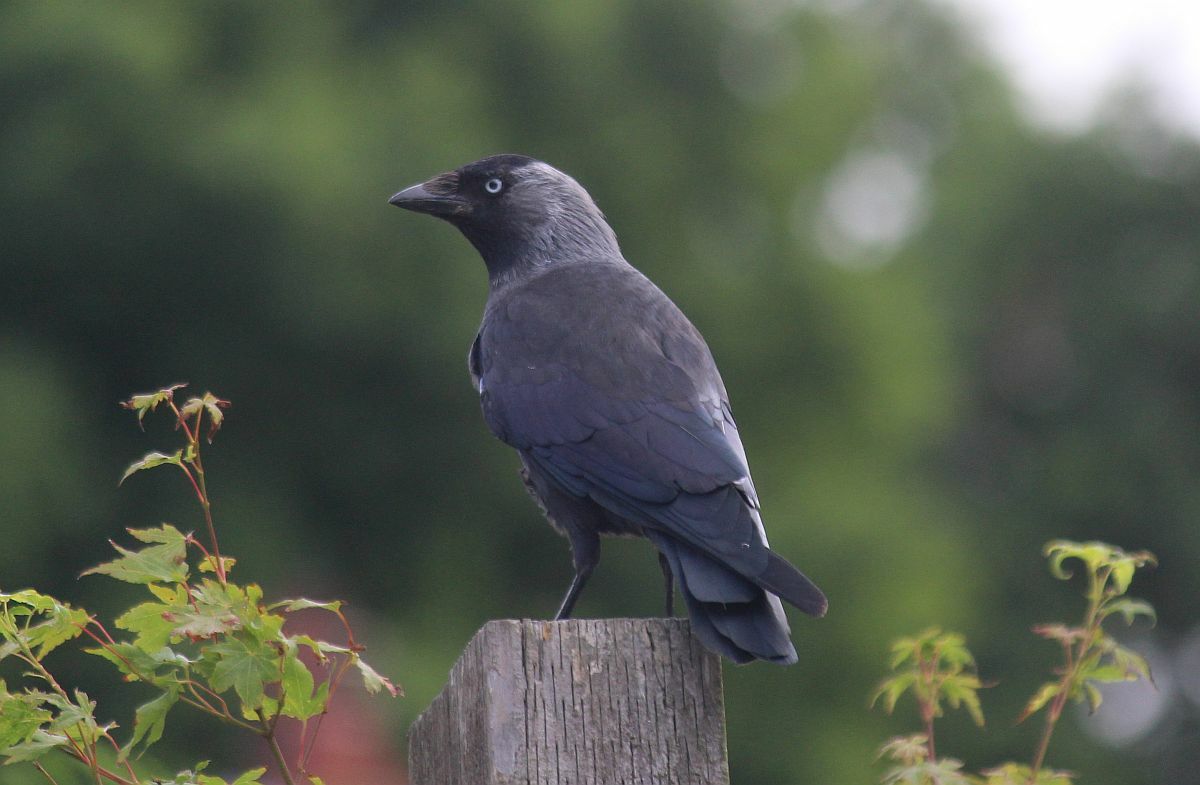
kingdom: Animalia
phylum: Chordata
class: Aves
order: Passeriformes
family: Corvidae
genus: Coloeus
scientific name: Coloeus monedula
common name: Western jackdaw
